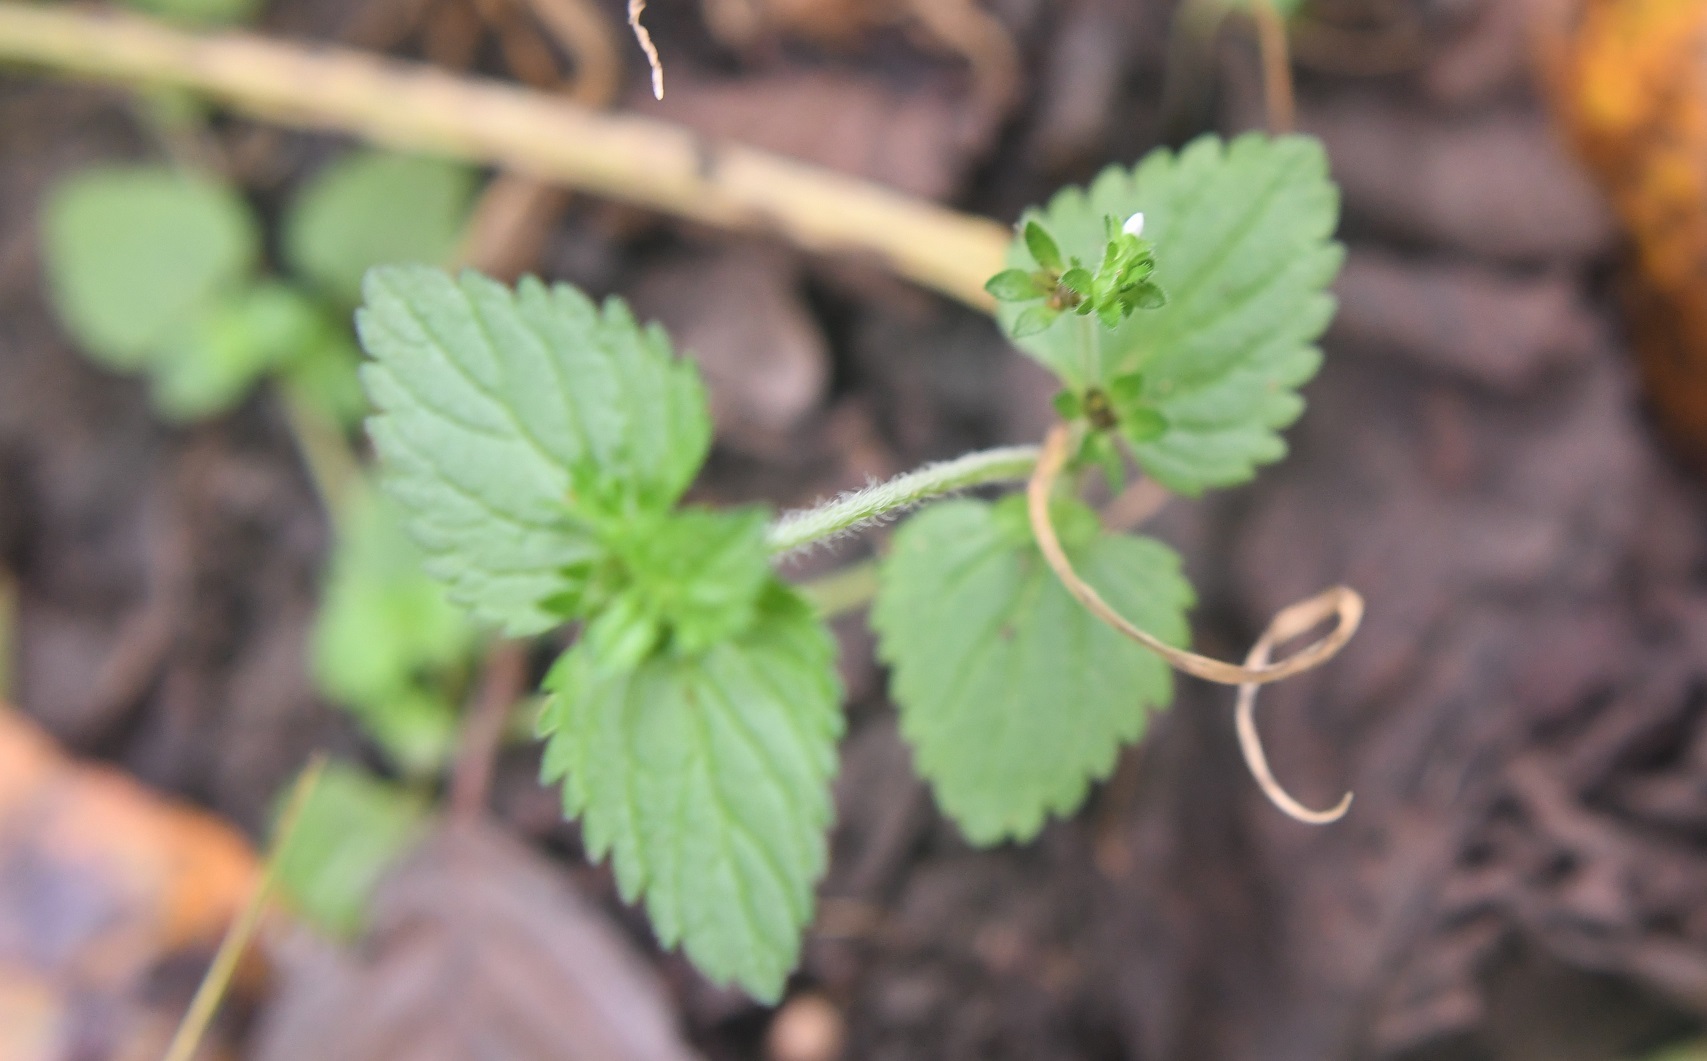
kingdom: Plantae
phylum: Tracheophyta
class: Magnoliopsida
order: Lamiales
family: Plantaginaceae
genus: Veronica
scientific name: Veronica javanica
